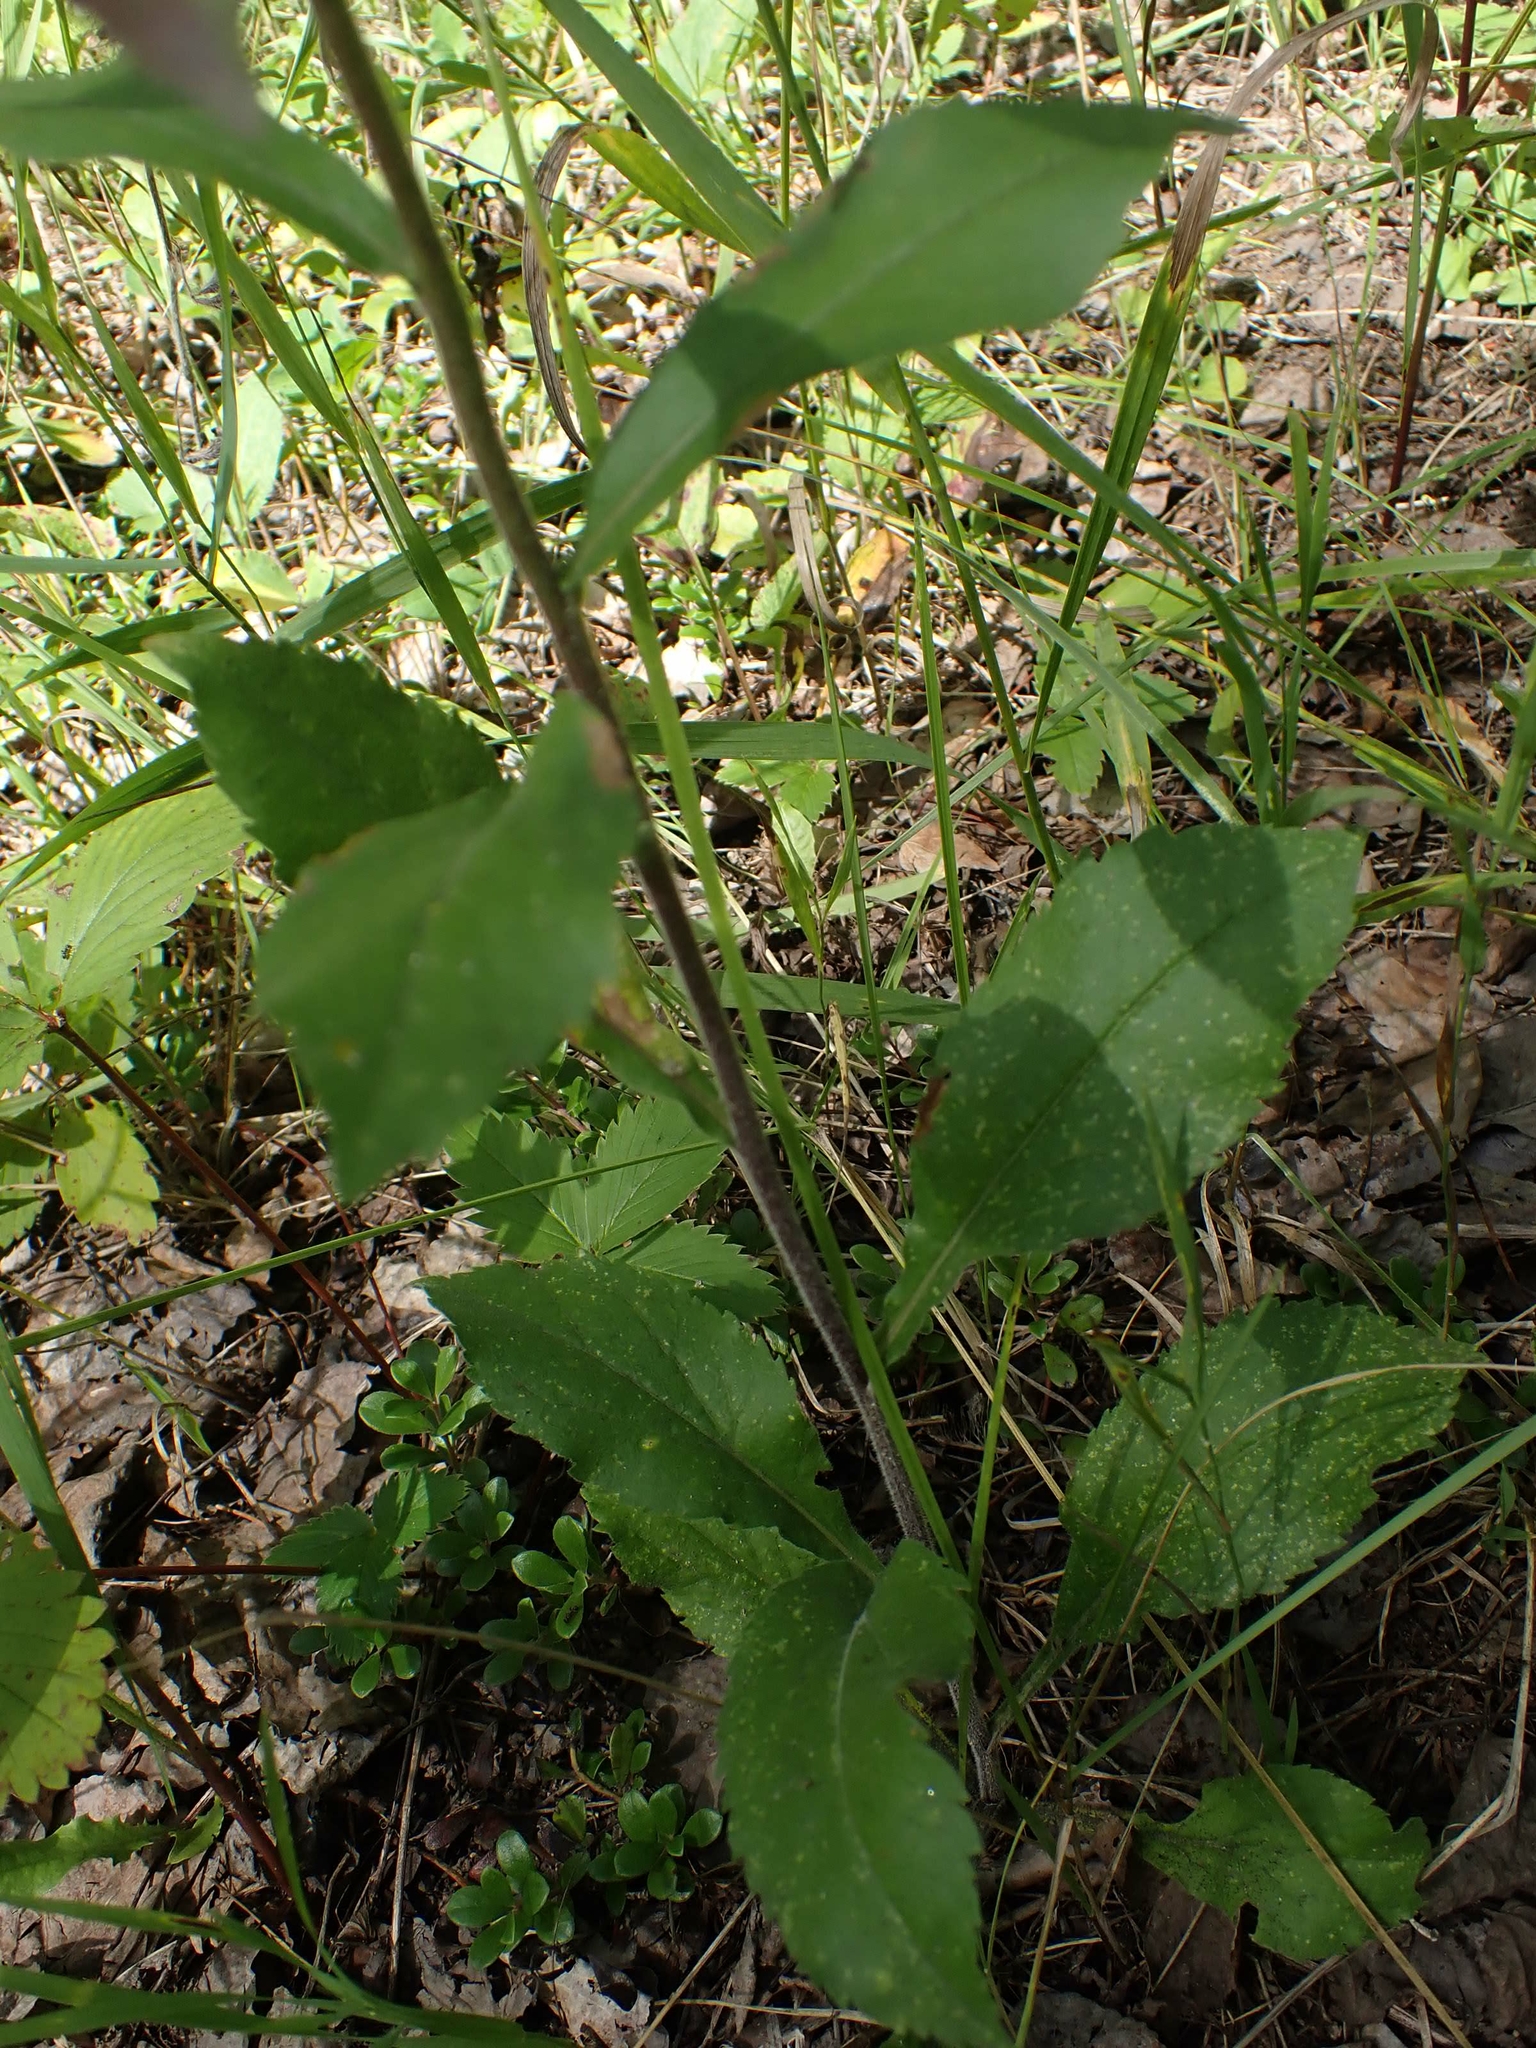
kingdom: Plantae
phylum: Tracheophyta
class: Magnoliopsida
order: Asterales
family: Asteraceae
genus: Solidago
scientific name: Solidago hispida
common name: Hairy goldenrod
